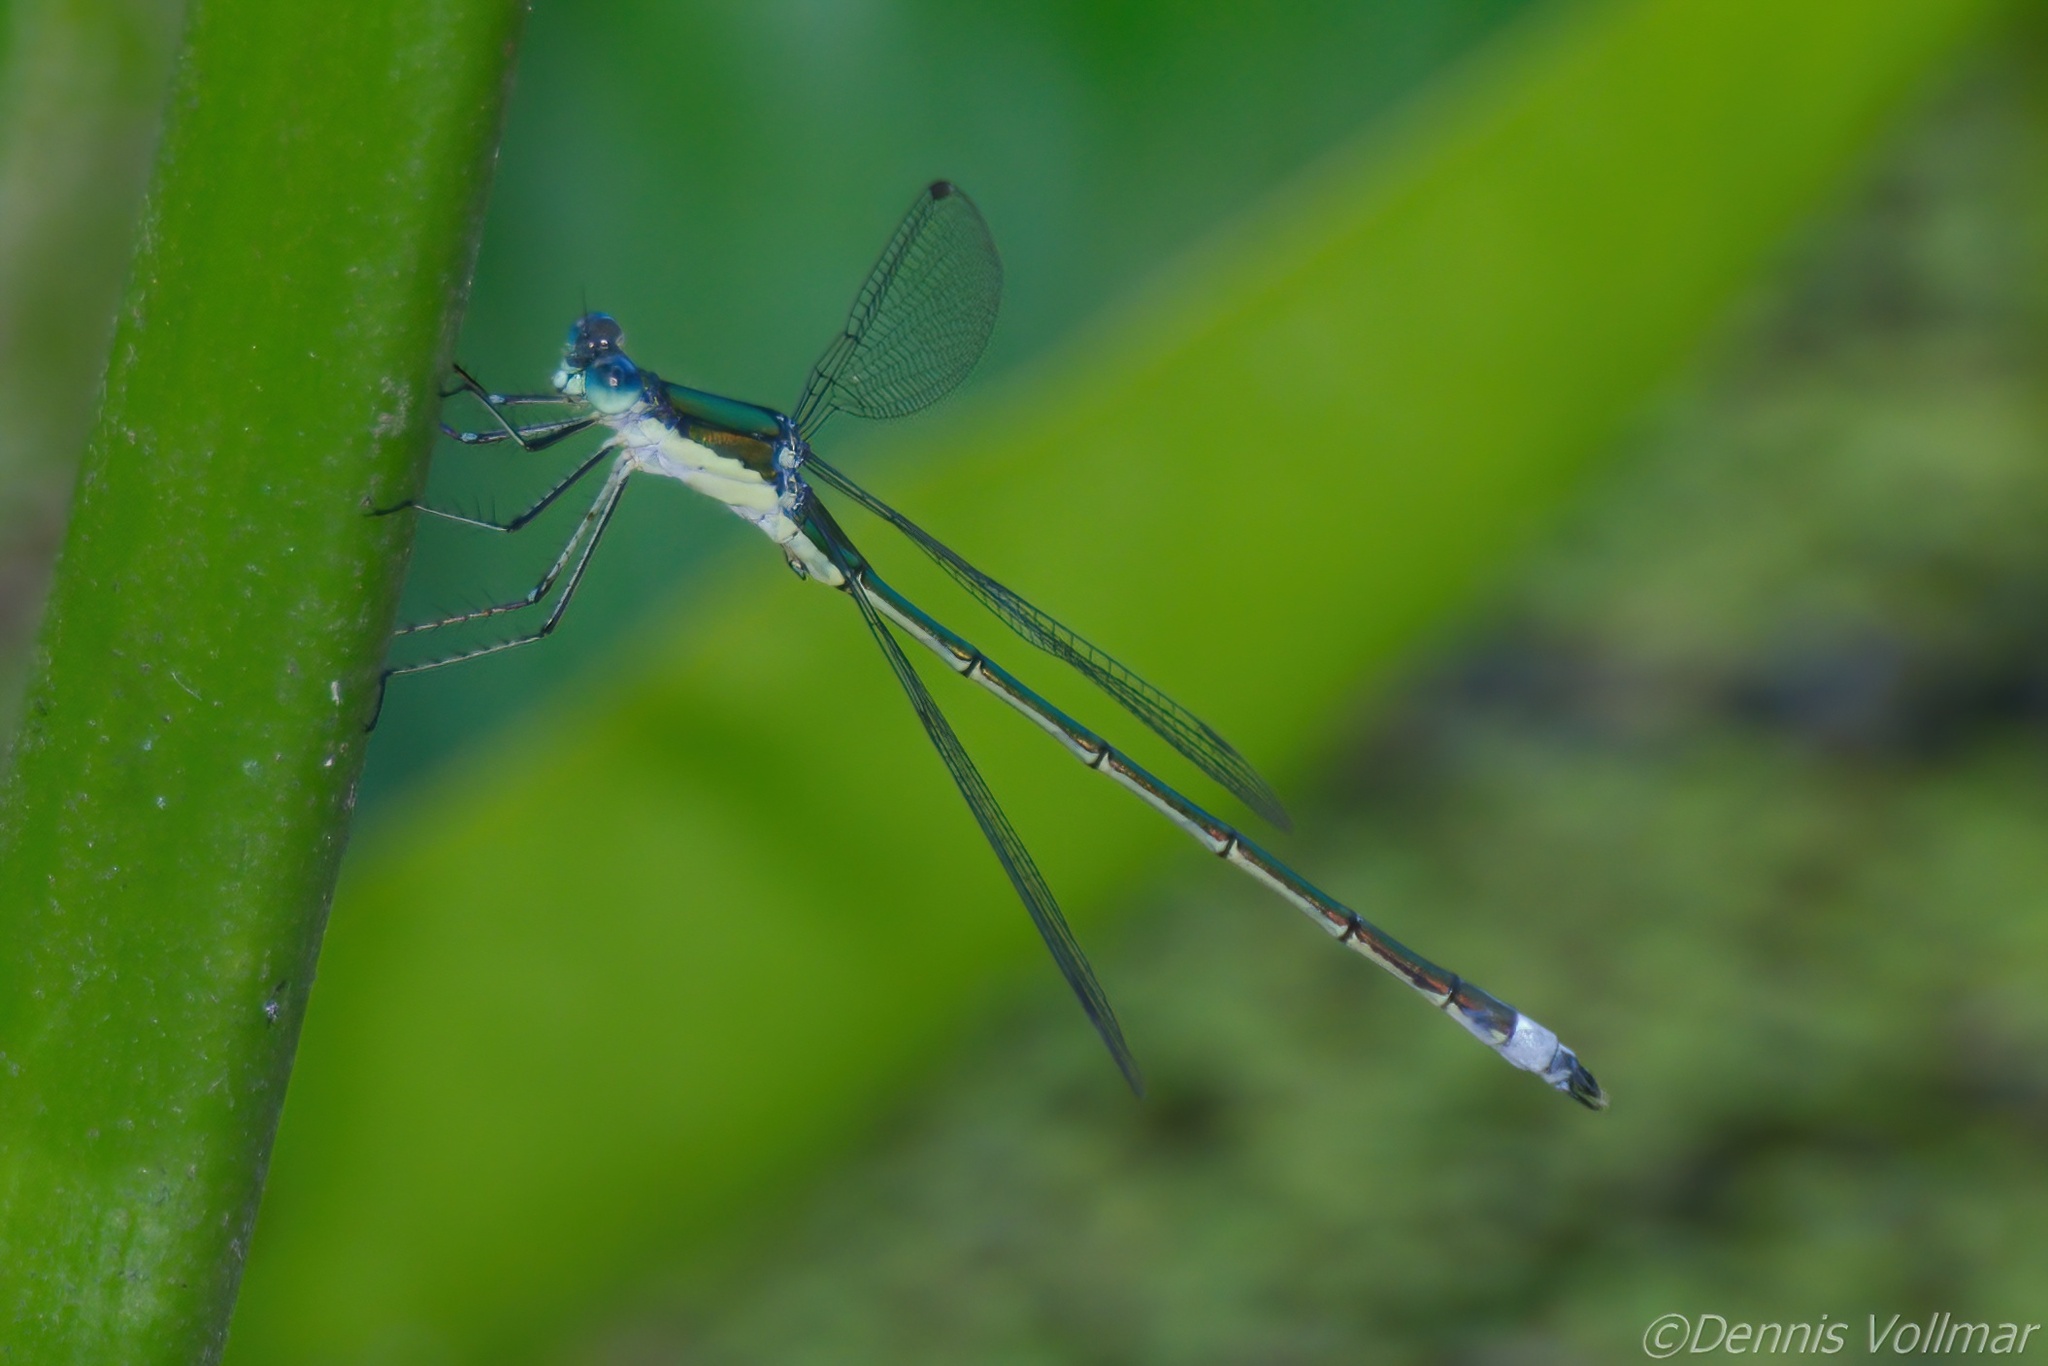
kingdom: Animalia
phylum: Arthropoda
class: Insecta
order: Odonata
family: Lestidae
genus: Lestes
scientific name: Lestes inaequalis
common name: Elegant spreadwing
